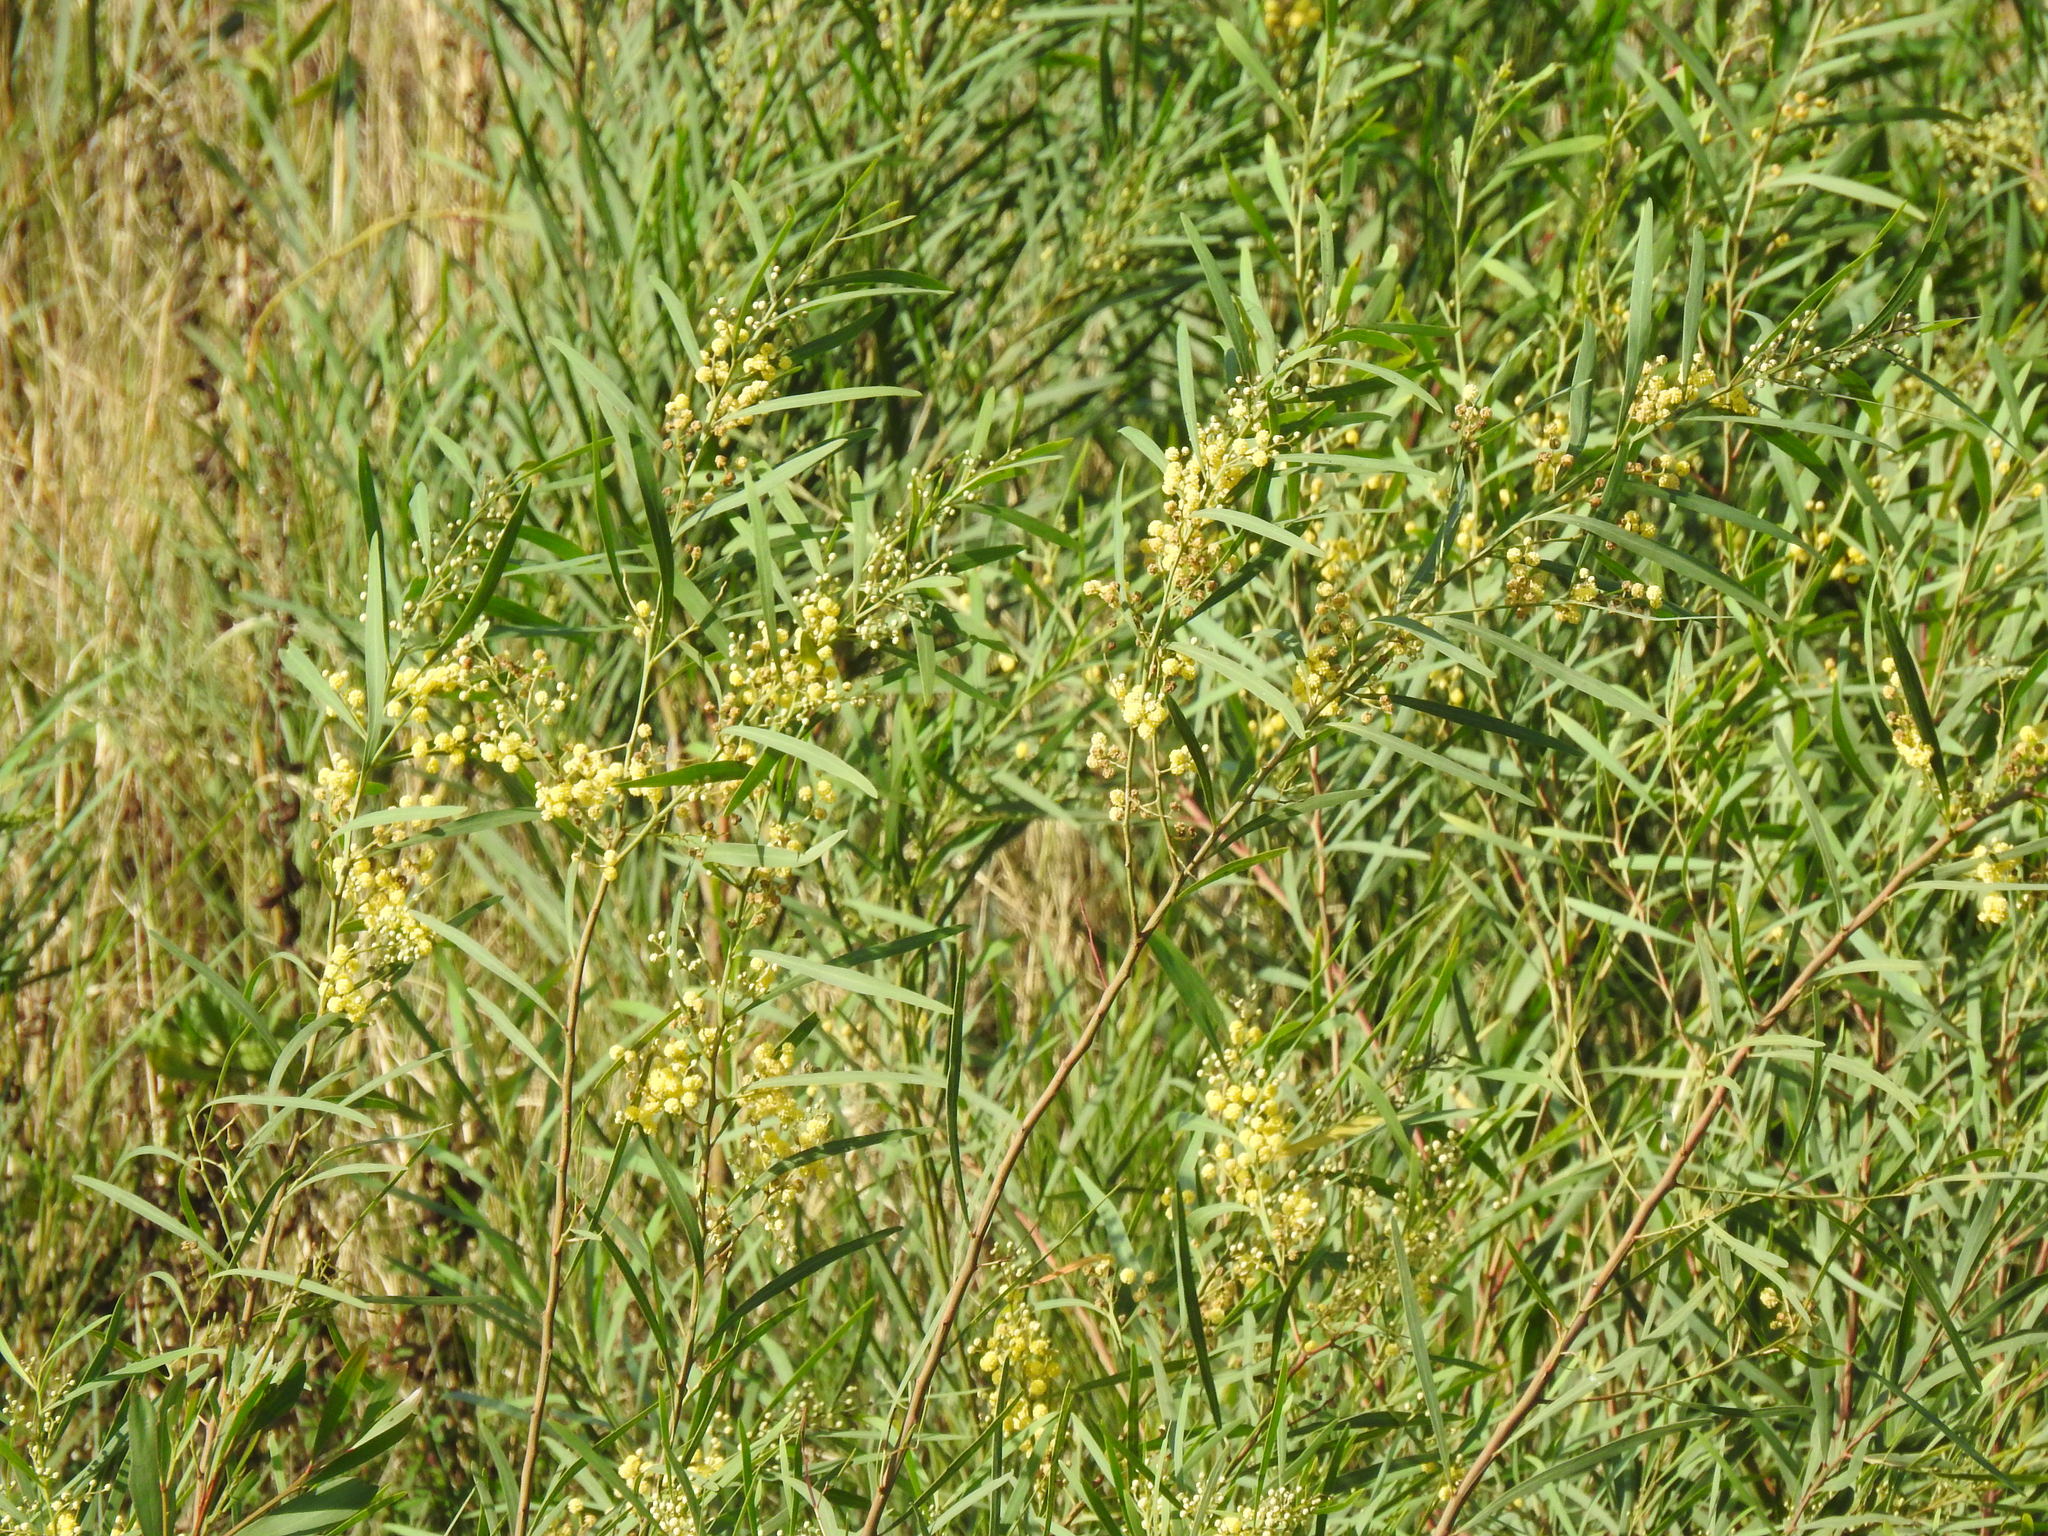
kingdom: Plantae
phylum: Tracheophyta
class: Magnoliopsida
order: Fabales
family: Fabaceae
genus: Acacia
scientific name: Acacia provincialis
